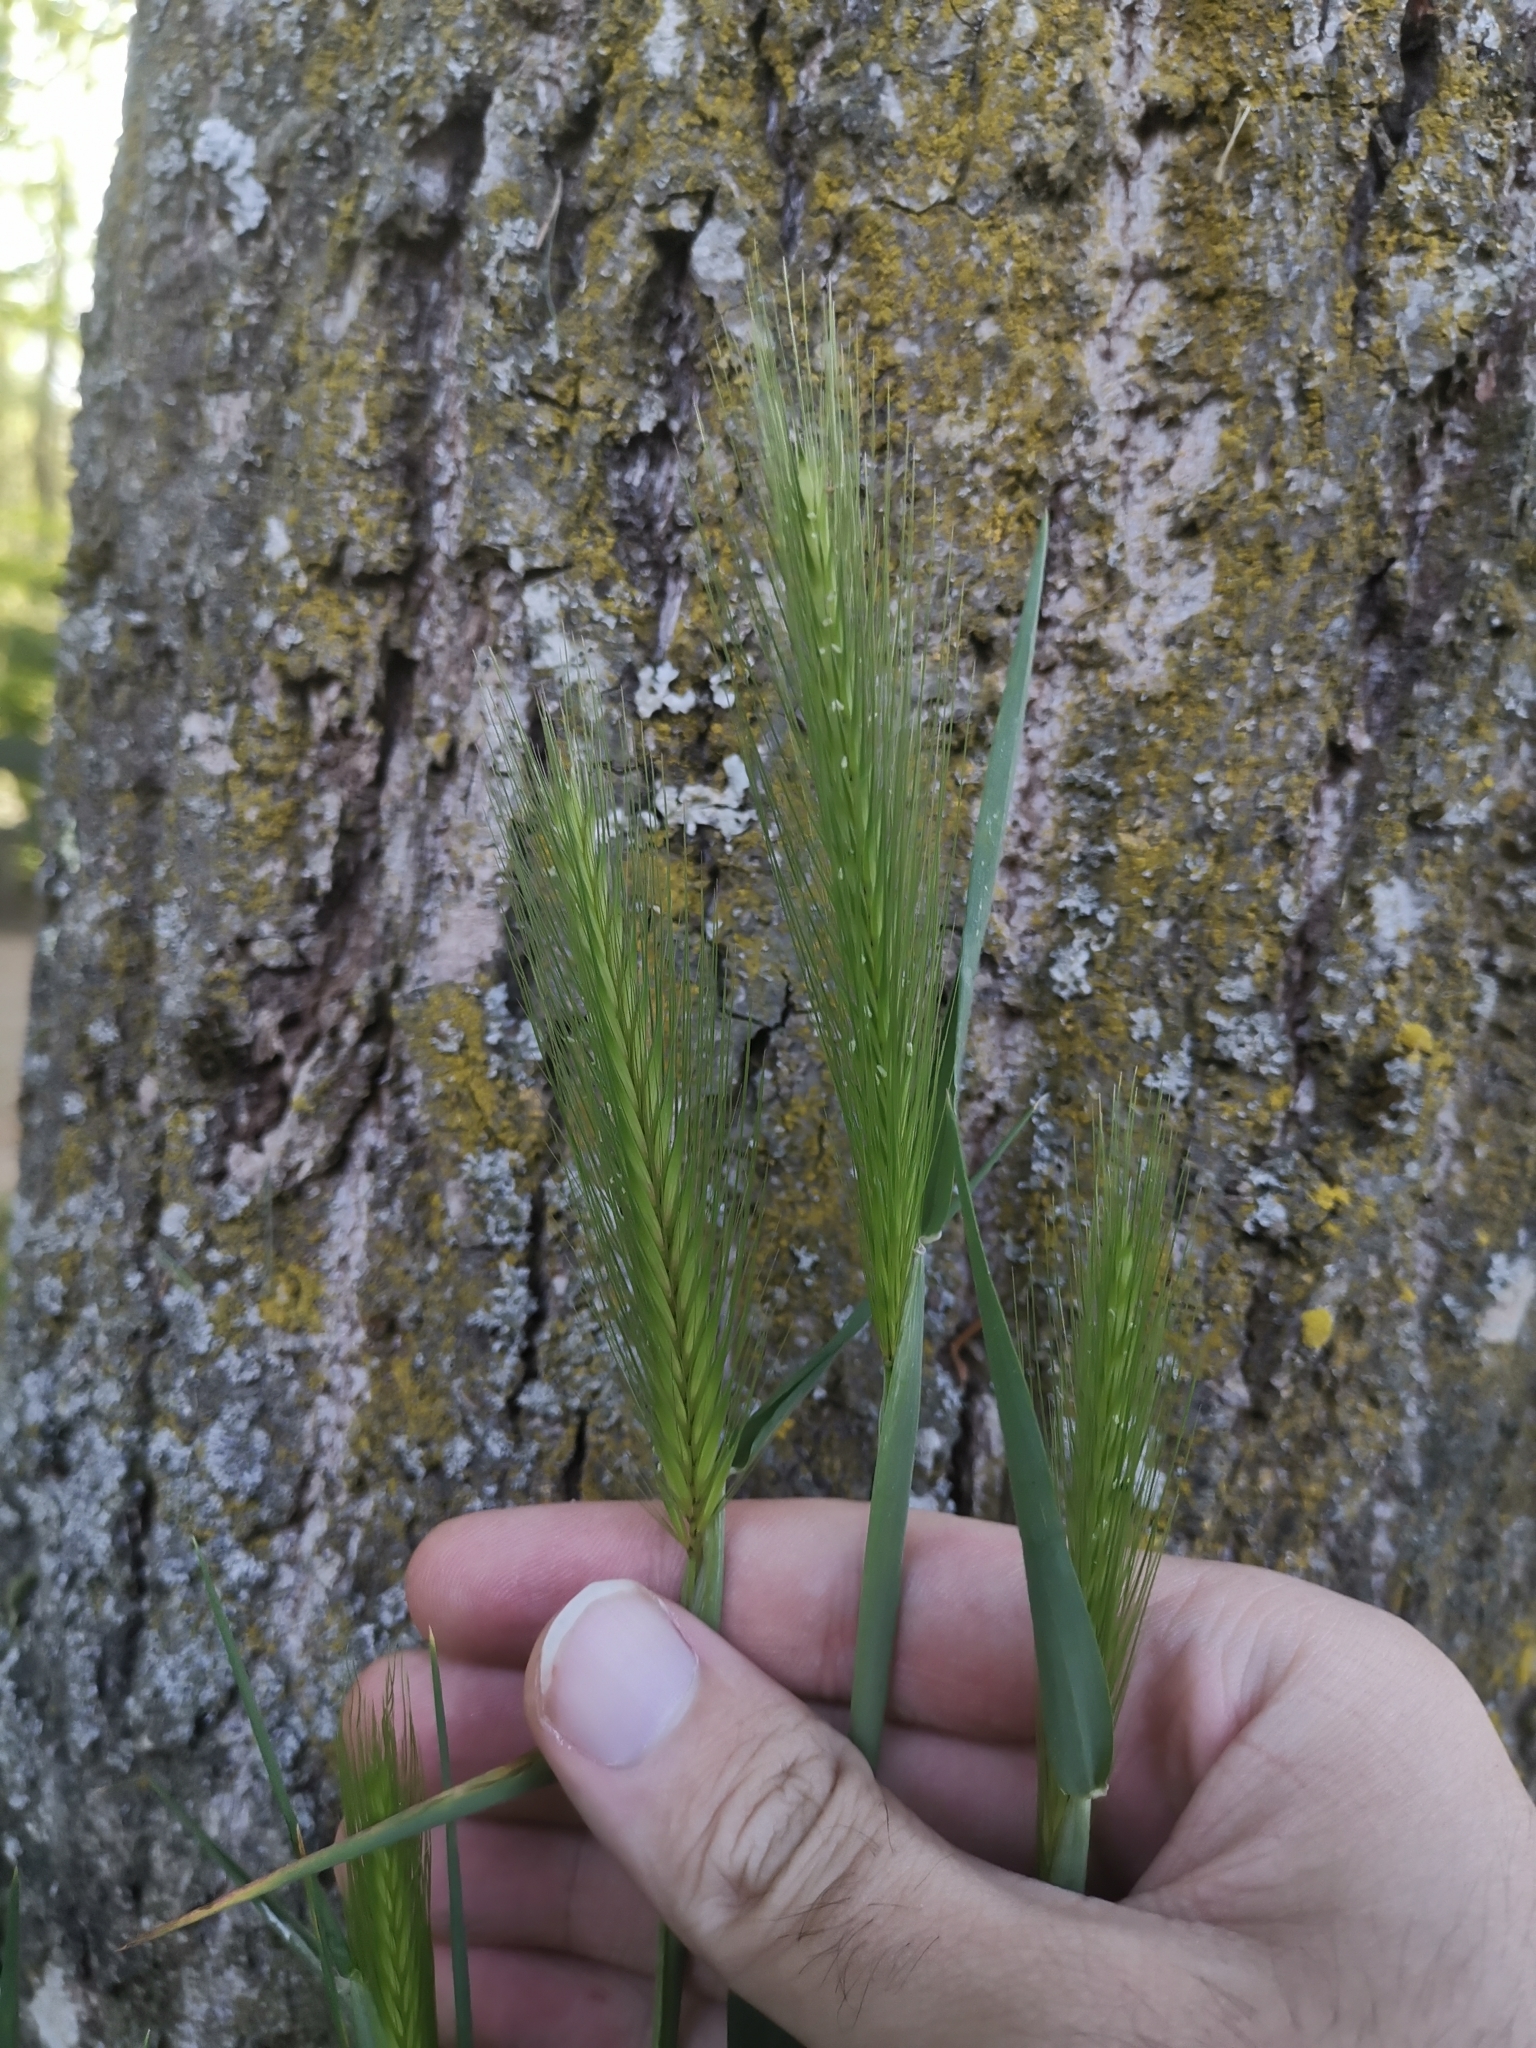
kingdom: Plantae
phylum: Tracheophyta
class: Liliopsida
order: Poales
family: Poaceae
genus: Hordeum
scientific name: Hordeum murinum
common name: Wall barley
